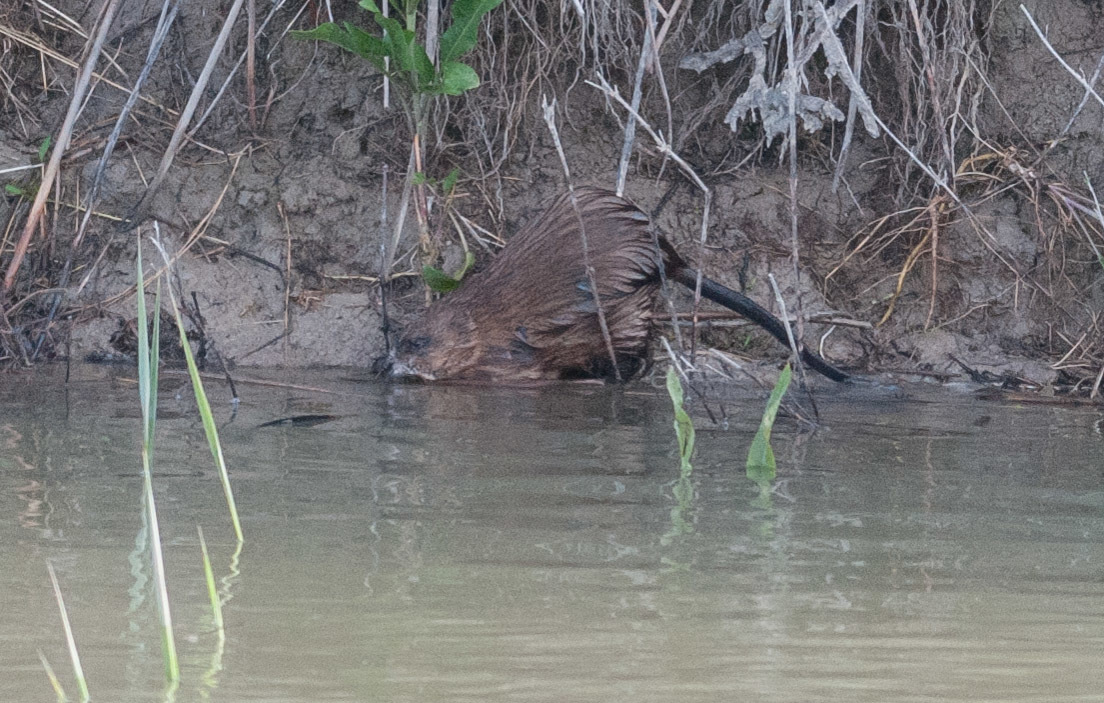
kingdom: Animalia
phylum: Chordata
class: Mammalia
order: Rodentia
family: Cricetidae
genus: Ondatra
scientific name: Ondatra zibethicus
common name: Muskrat
